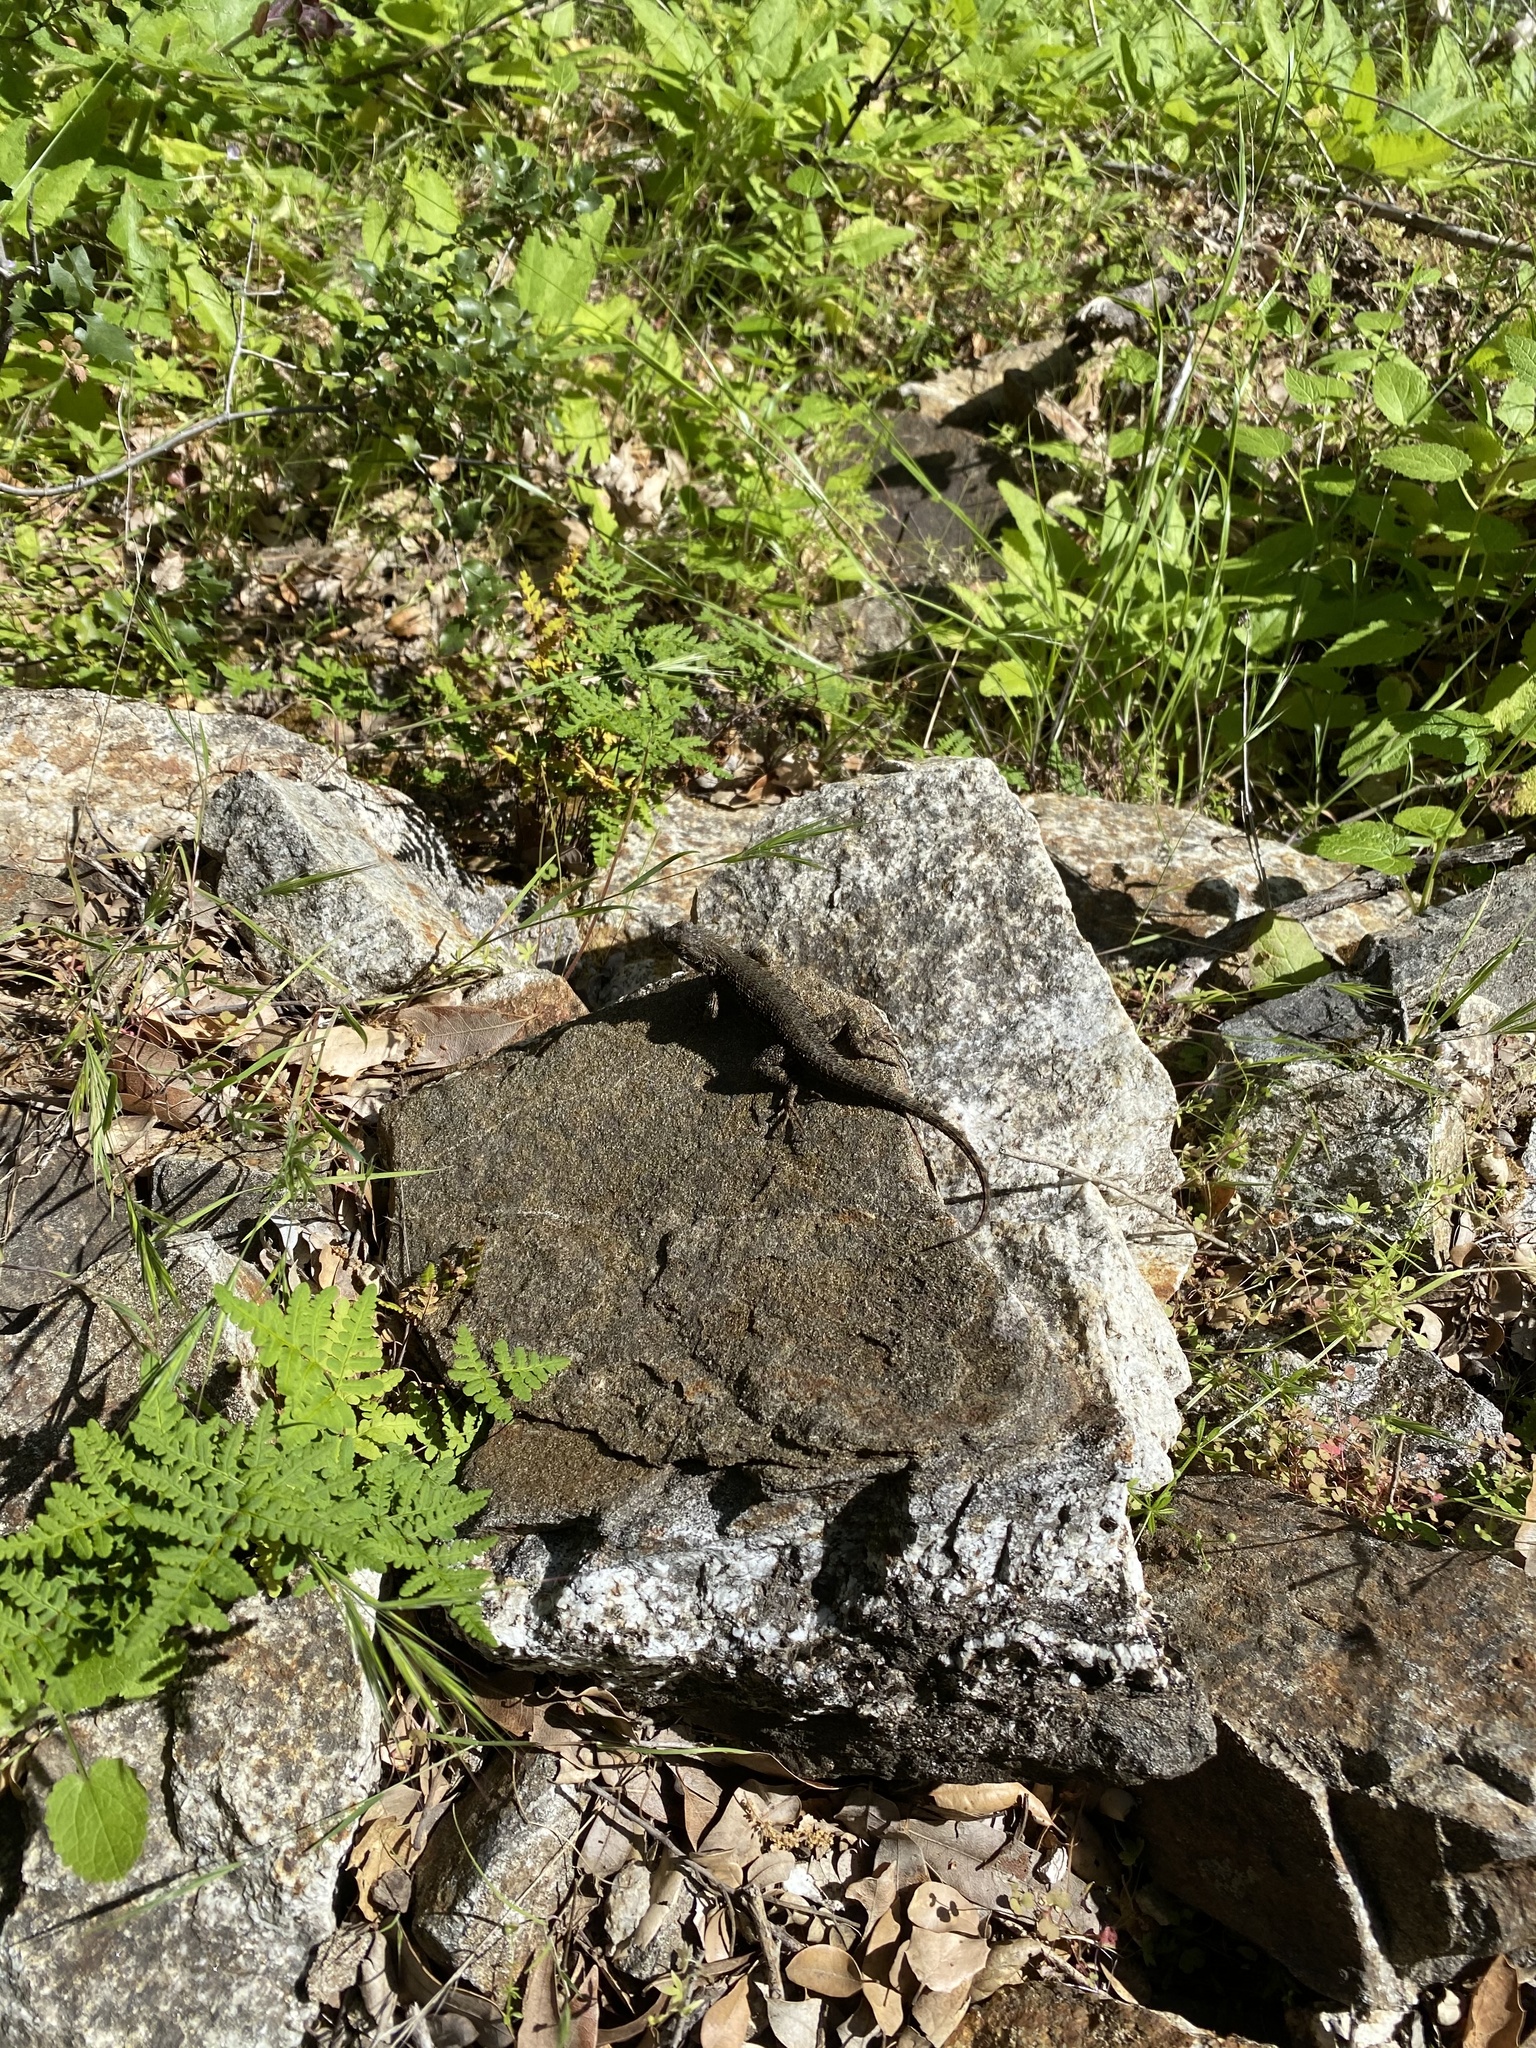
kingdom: Animalia
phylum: Chordata
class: Squamata
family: Phrynosomatidae
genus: Sceloporus
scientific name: Sceloporus occidentalis
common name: Western fence lizard
